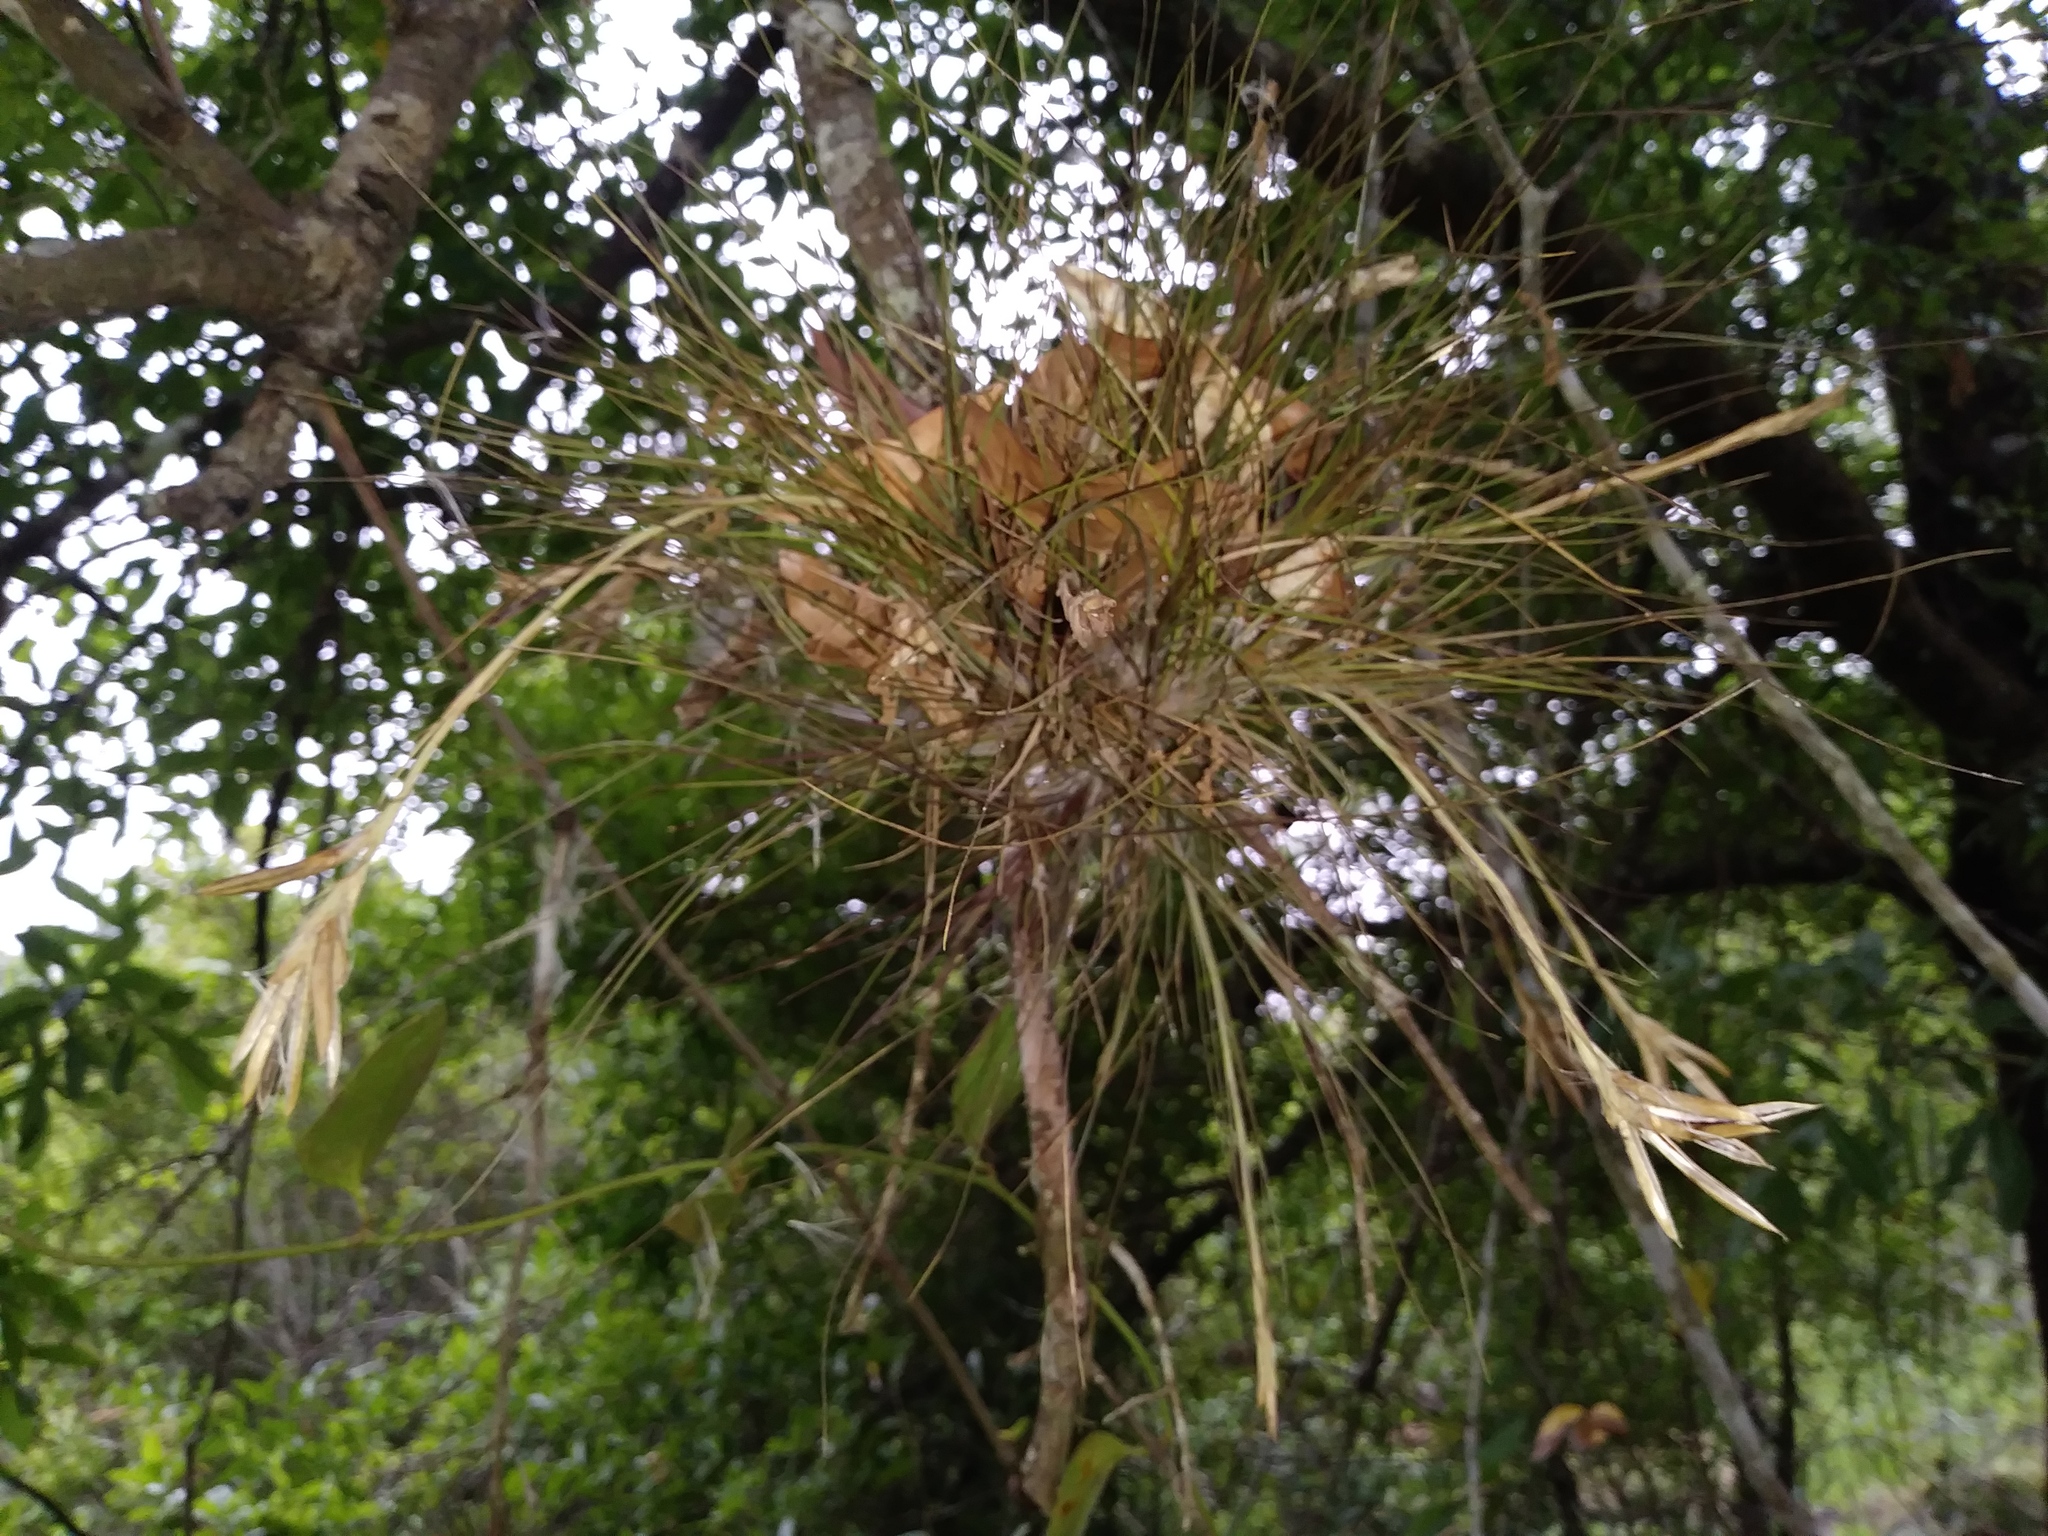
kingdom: Plantae
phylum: Tracheophyta
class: Liliopsida
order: Poales
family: Bromeliaceae
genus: Tillandsia
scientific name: Tillandsia setacea
